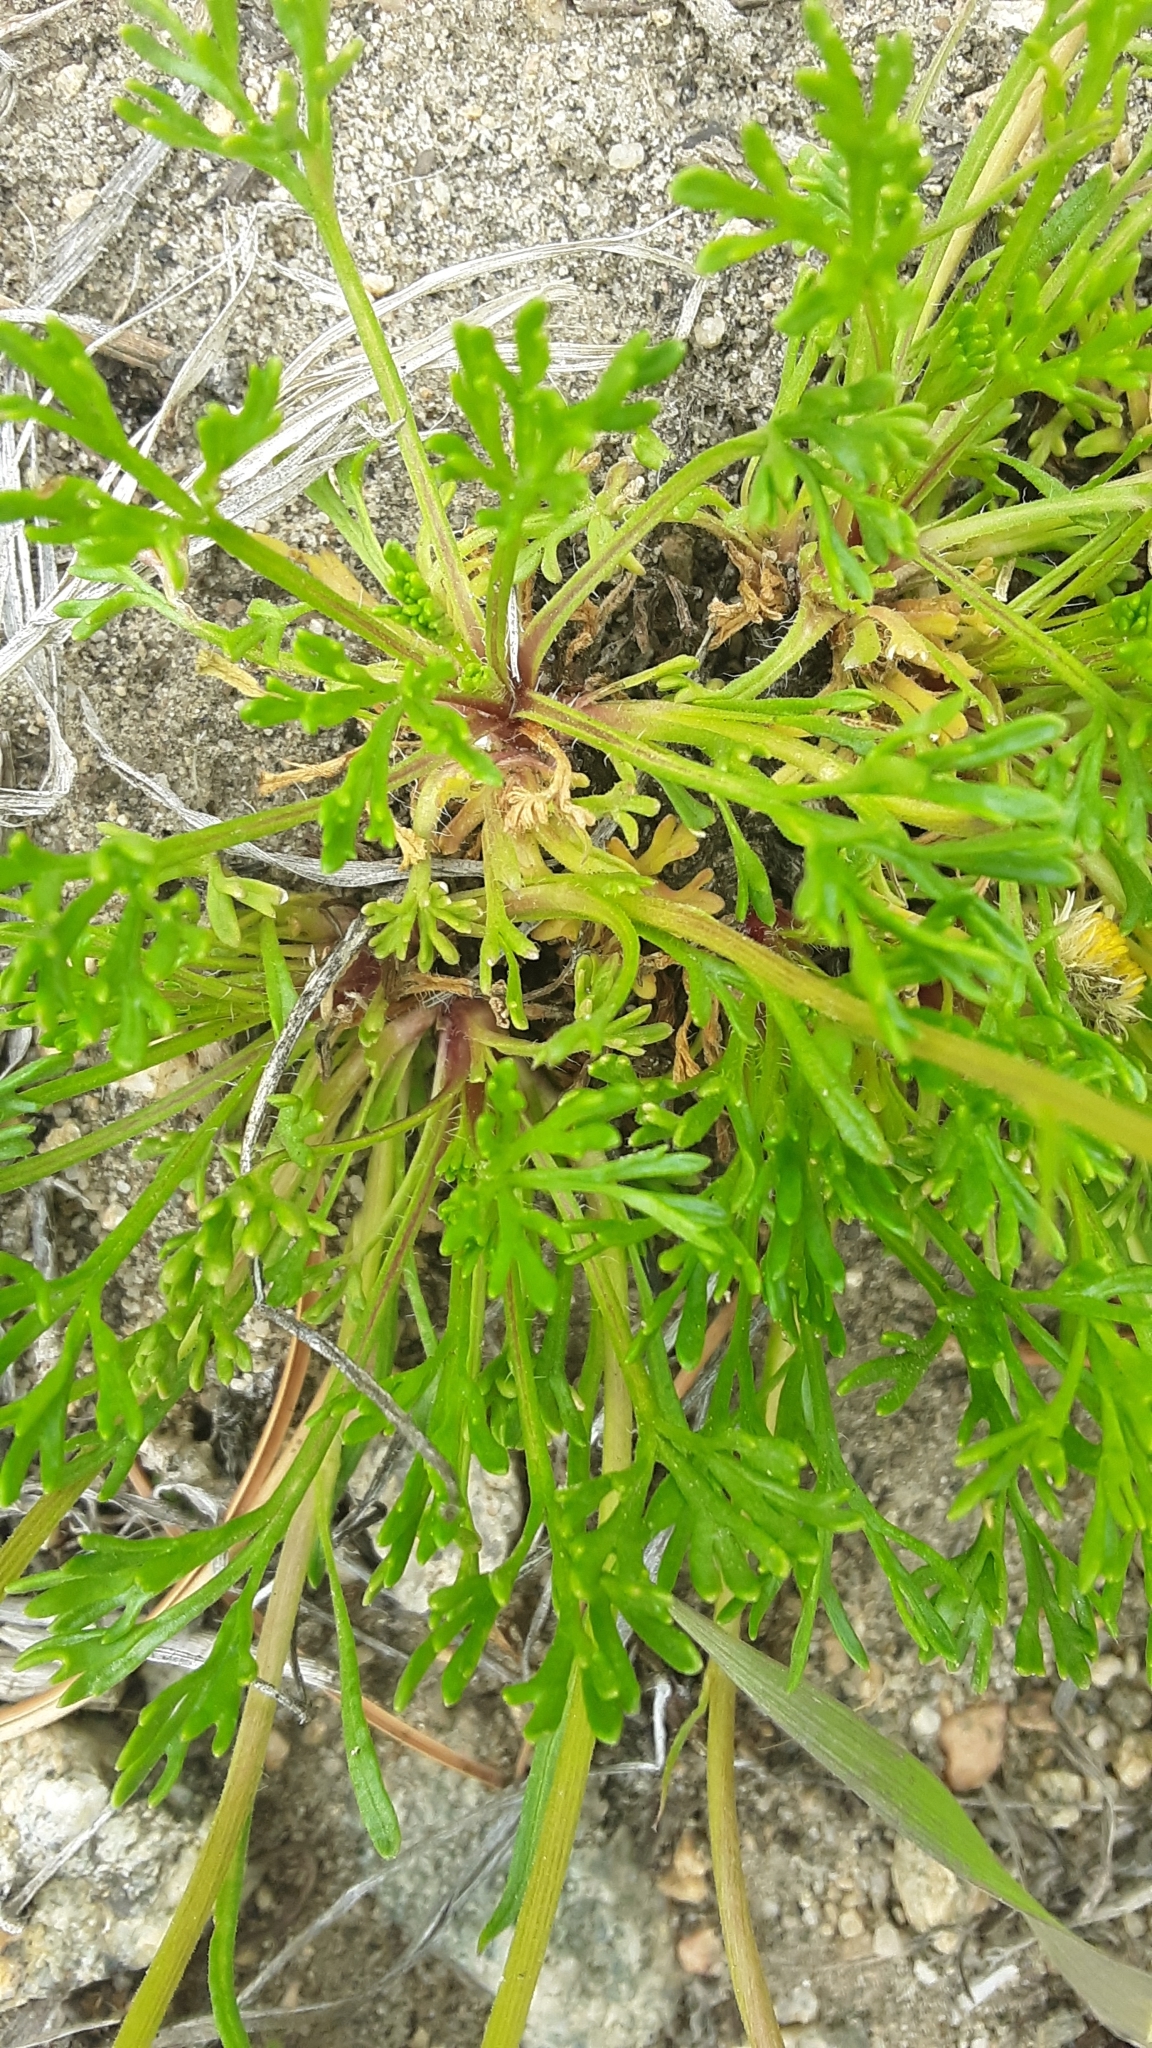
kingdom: Plantae
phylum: Tracheophyta
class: Magnoliopsida
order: Asterales
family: Asteraceae
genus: Erigeron
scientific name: Erigeron compositus
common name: Dwarf mountain fleabane
